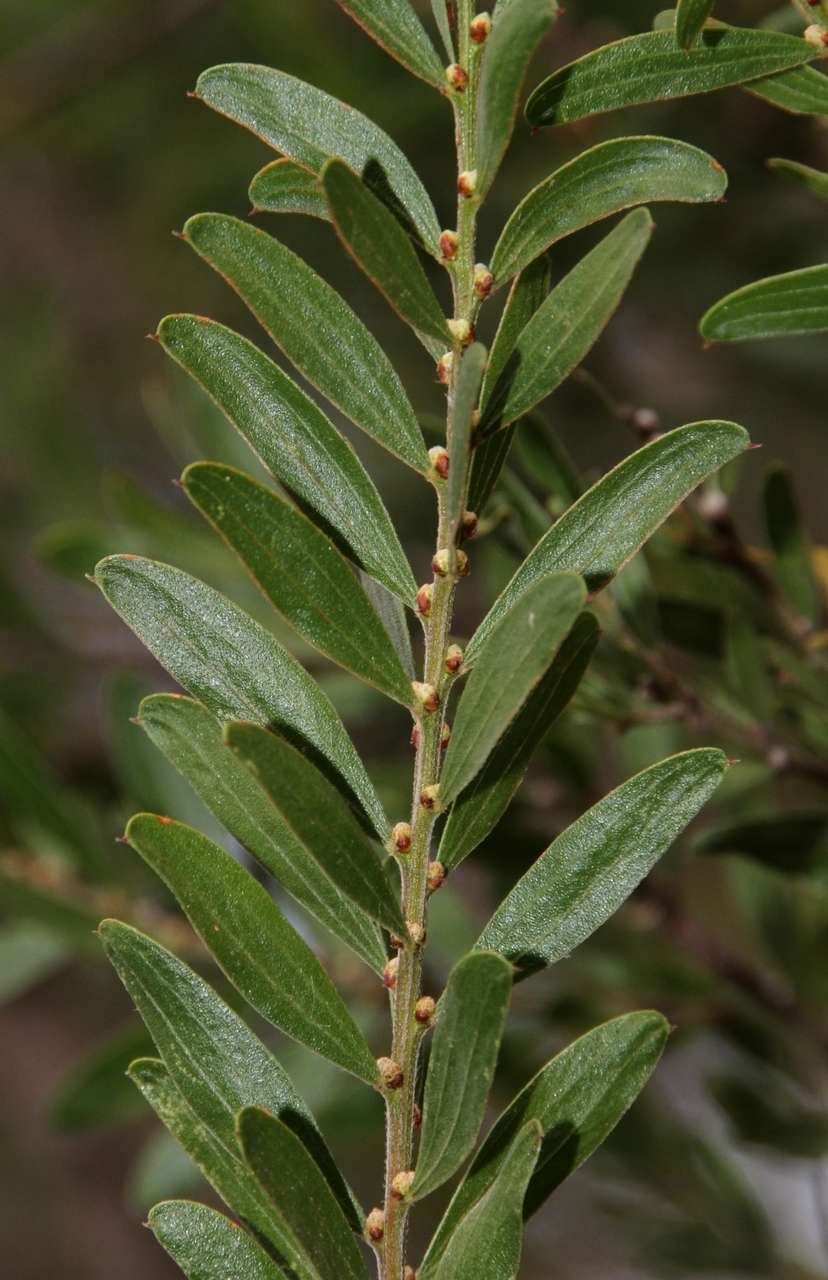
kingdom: Plantae
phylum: Tracheophyta
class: Magnoliopsida
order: Fabales
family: Fabaceae
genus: Acacia
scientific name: Acacia rostriformis
